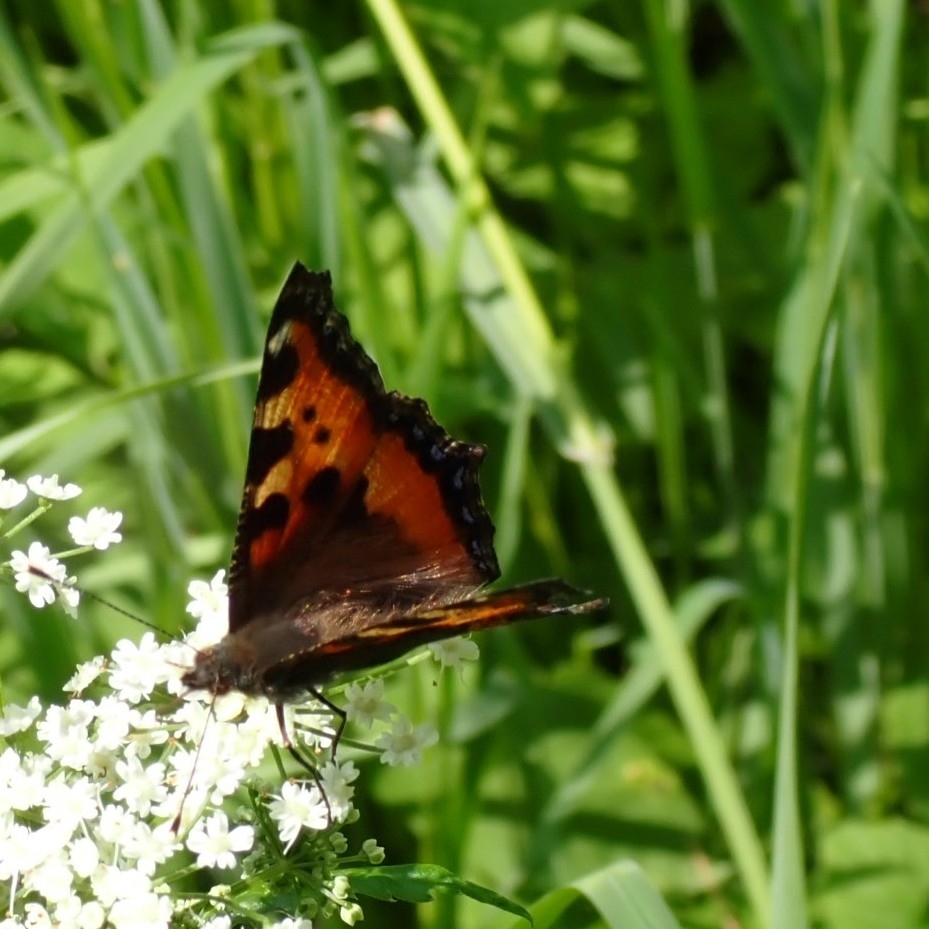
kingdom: Animalia
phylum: Arthropoda
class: Insecta
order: Lepidoptera
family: Nymphalidae
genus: Aglais
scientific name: Aglais urticae
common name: Small tortoiseshell
